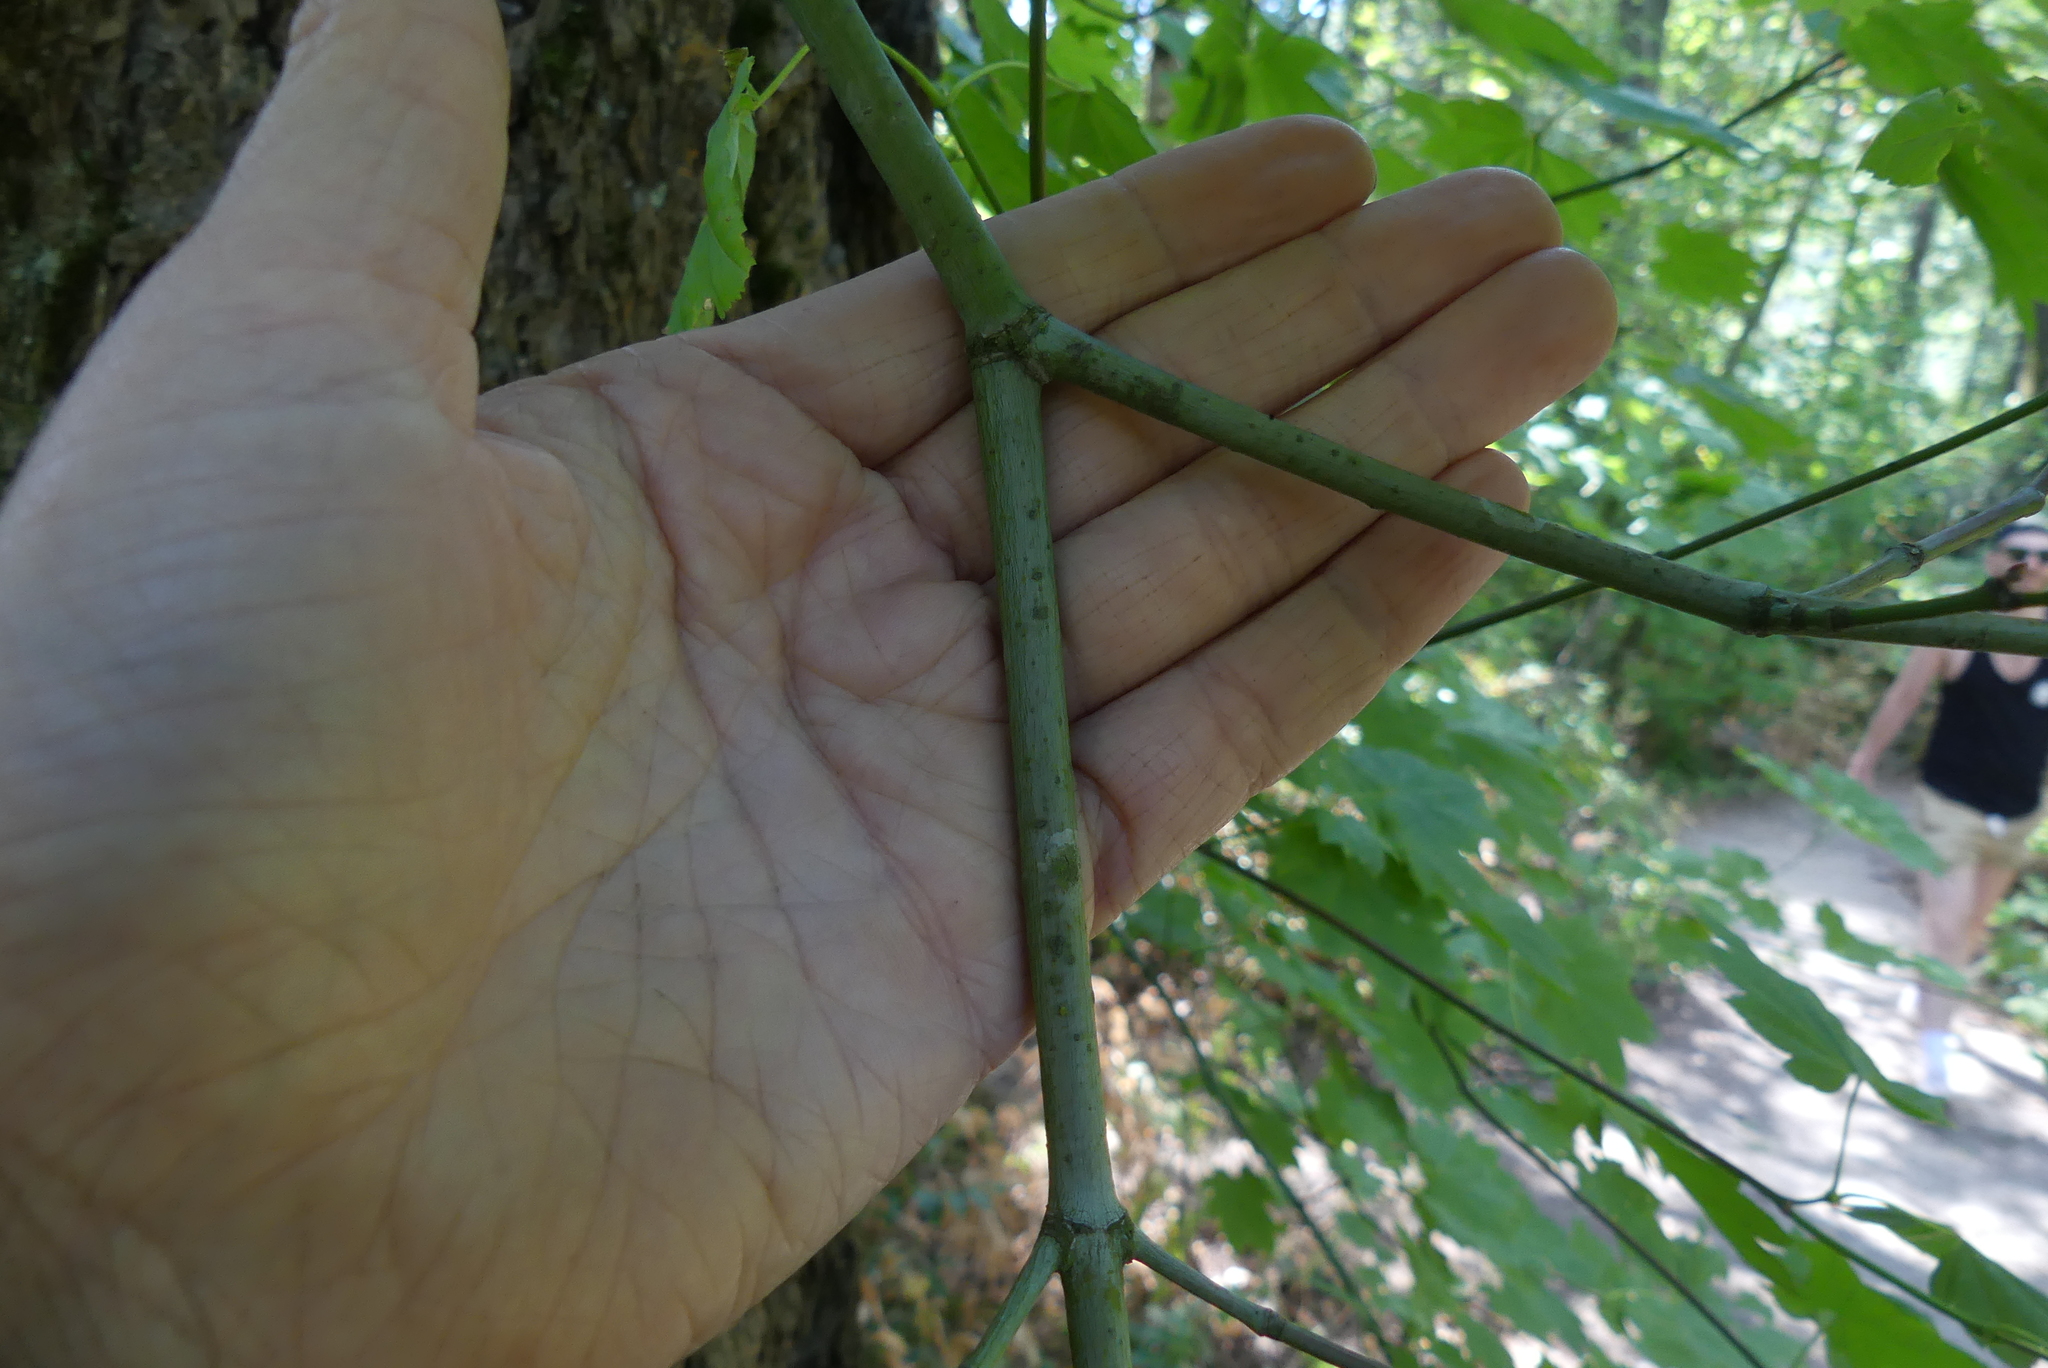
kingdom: Plantae
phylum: Tracheophyta
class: Magnoliopsida
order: Sapindales
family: Sapindaceae
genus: Acer
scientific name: Acer circinatum
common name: Vine maple
